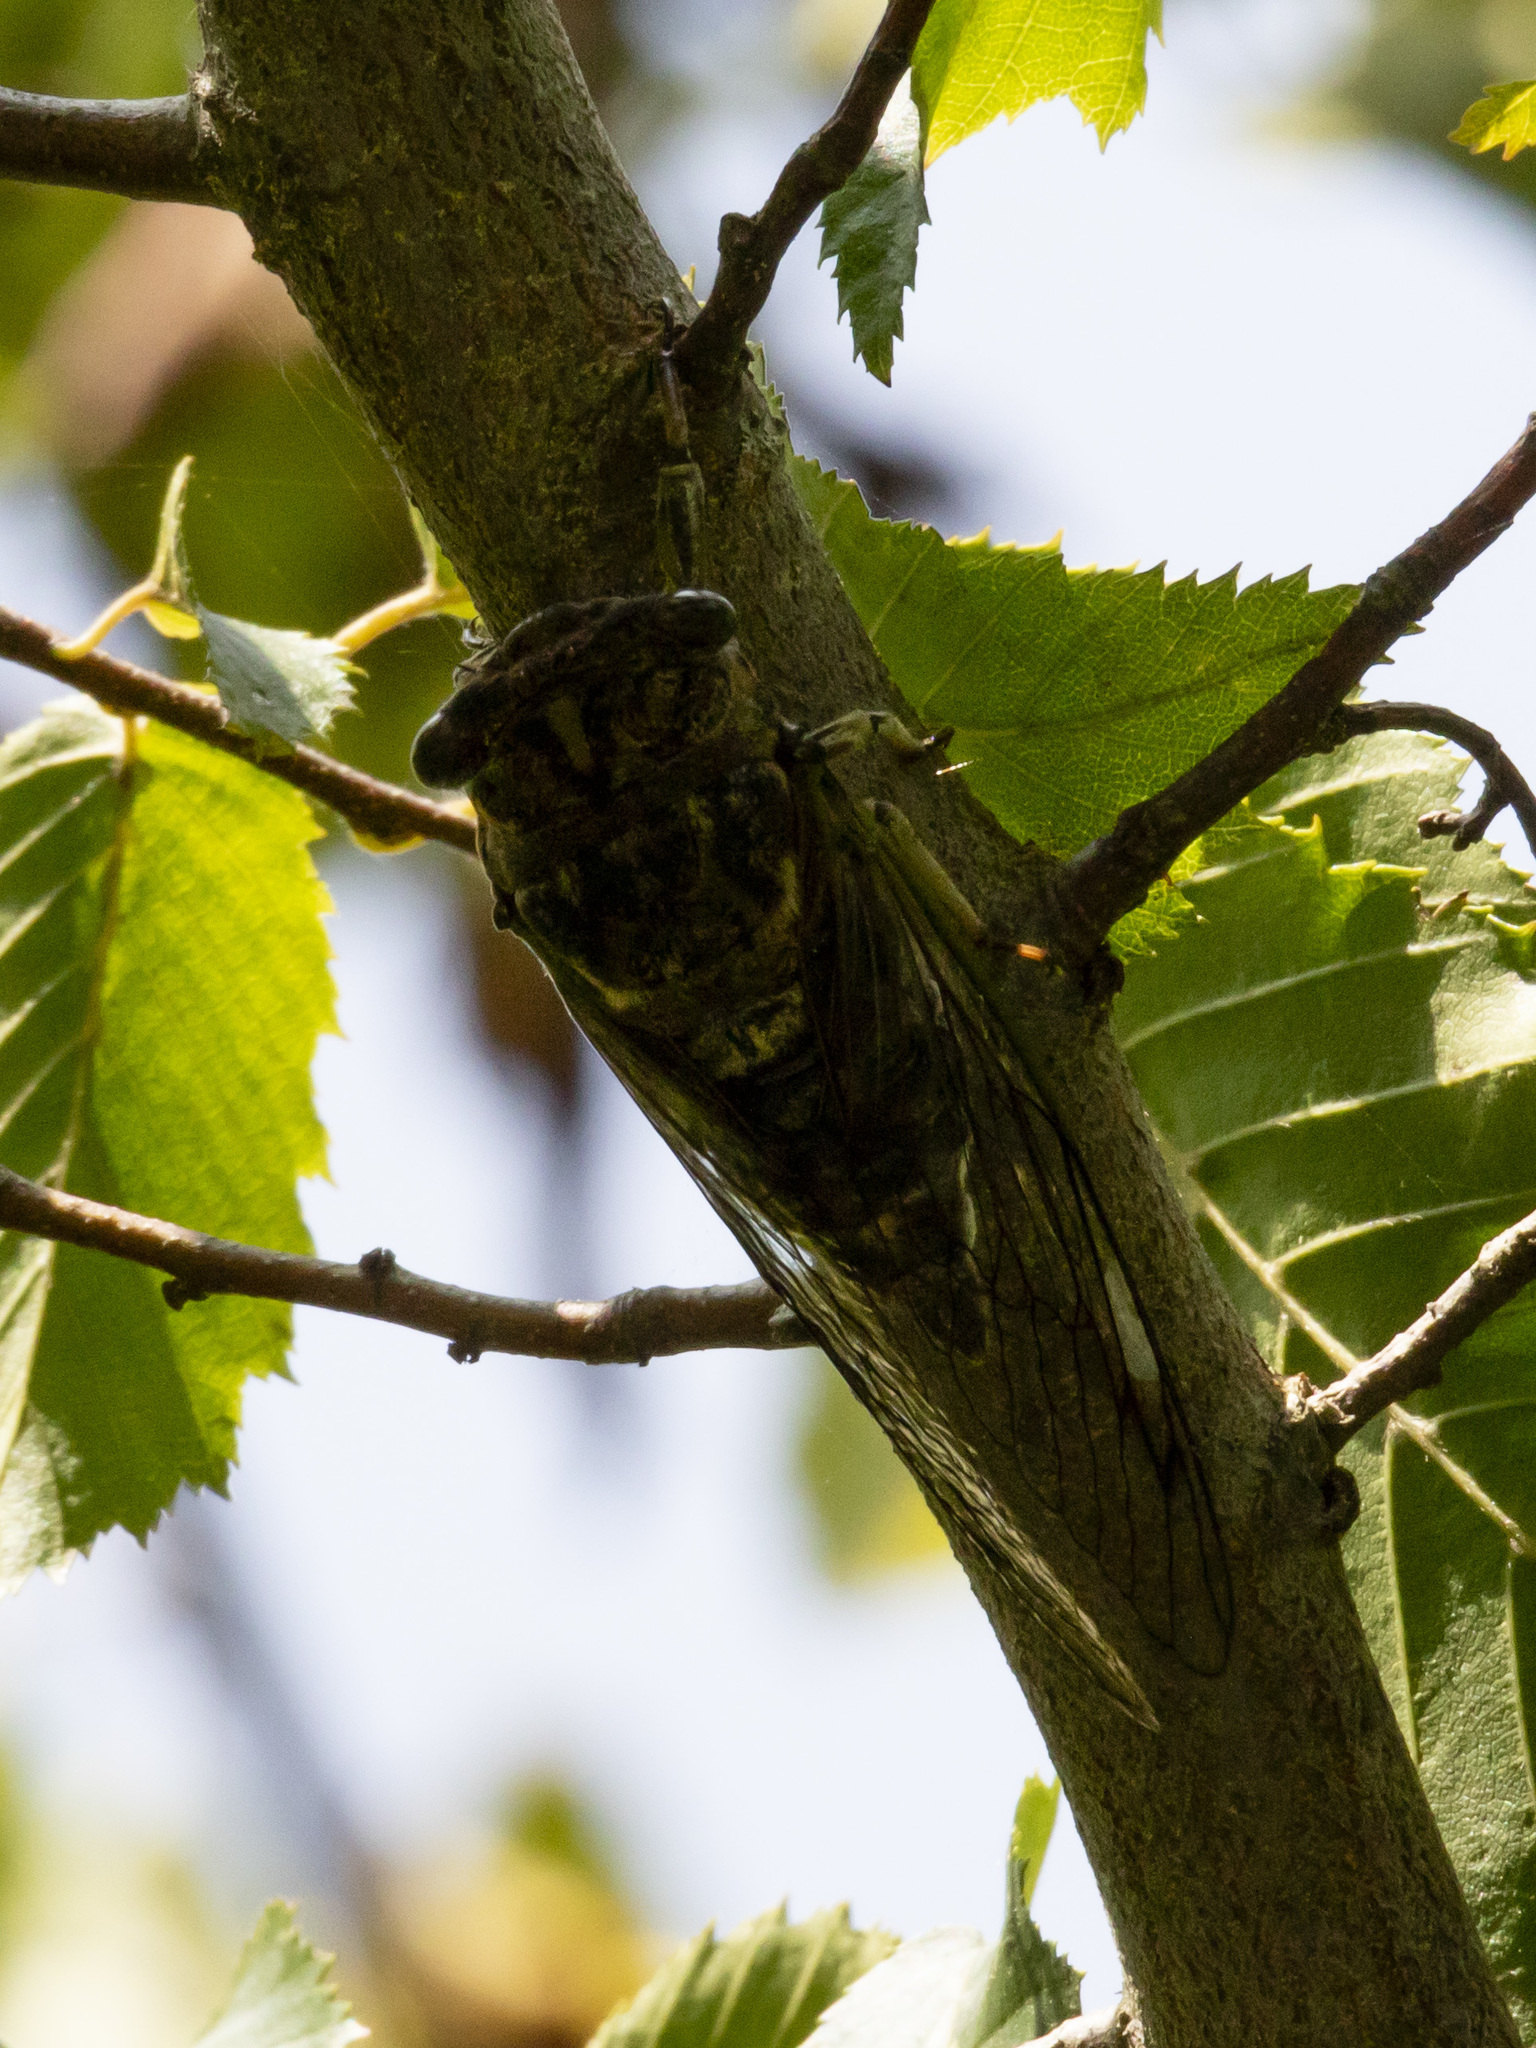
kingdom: Animalia
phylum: Arthropoda
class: Insecta
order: Hemiptera
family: Cicadidae
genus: Neotibicen
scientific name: Neotibicen canicularis
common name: God-day cicada
